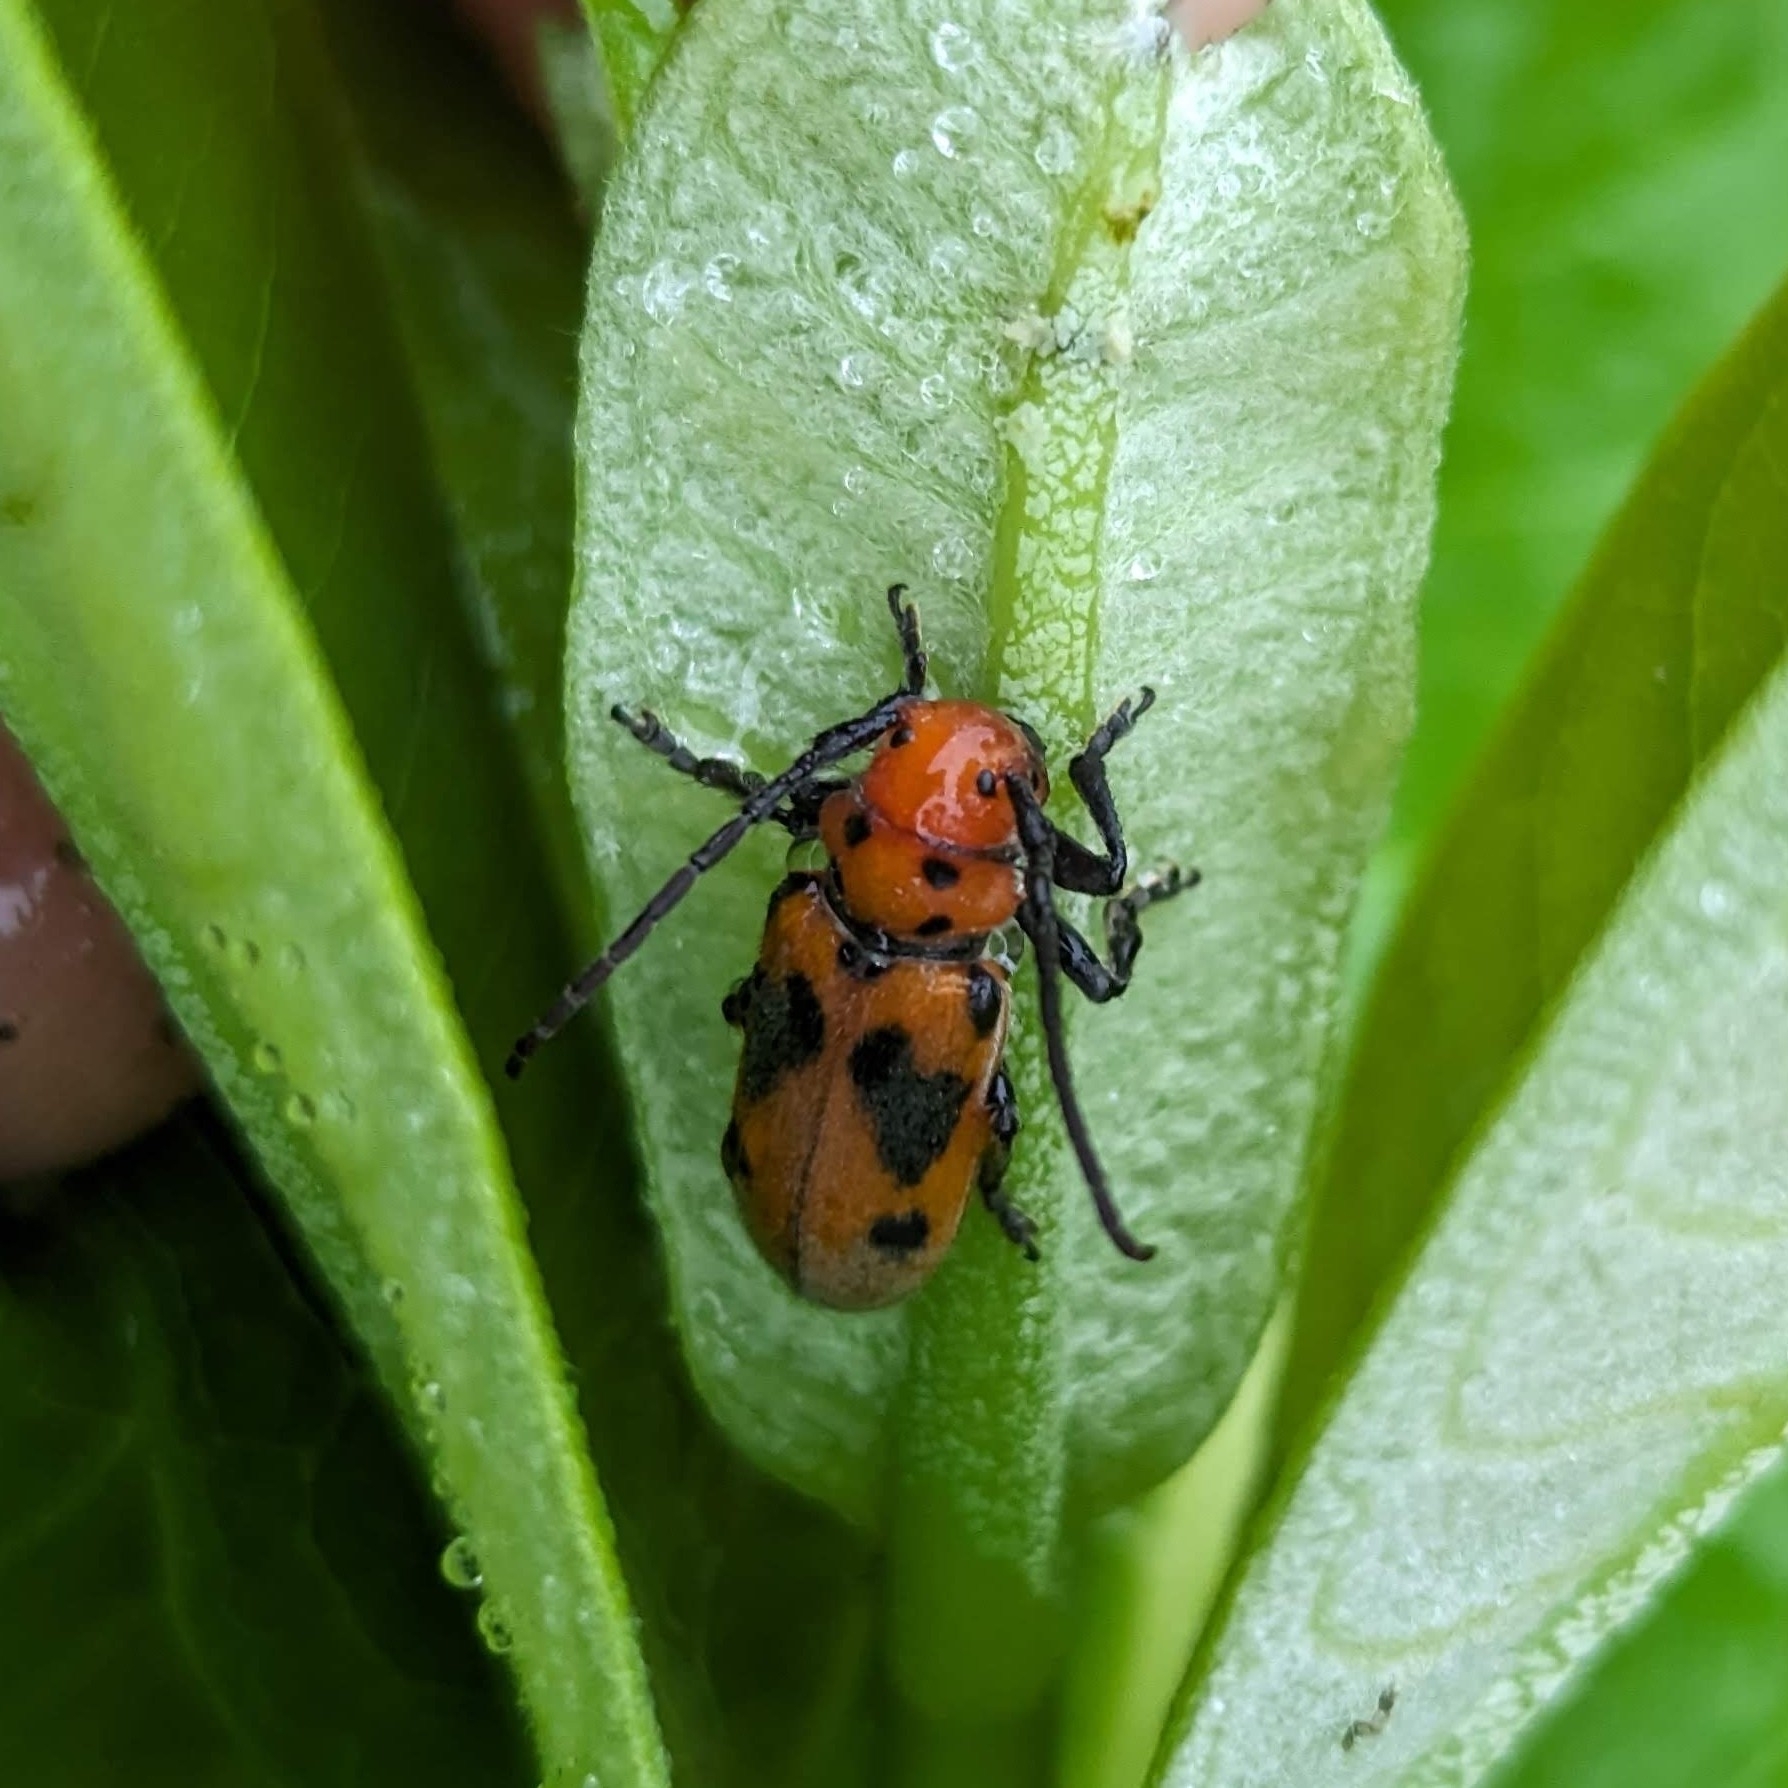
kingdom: Animalia
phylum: Arthropoda
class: Insecta
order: Coleoptera
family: Cerambycidae
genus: Tetraopes
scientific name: Tetraopes tetrophthalmus
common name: Red milkweed beetle
